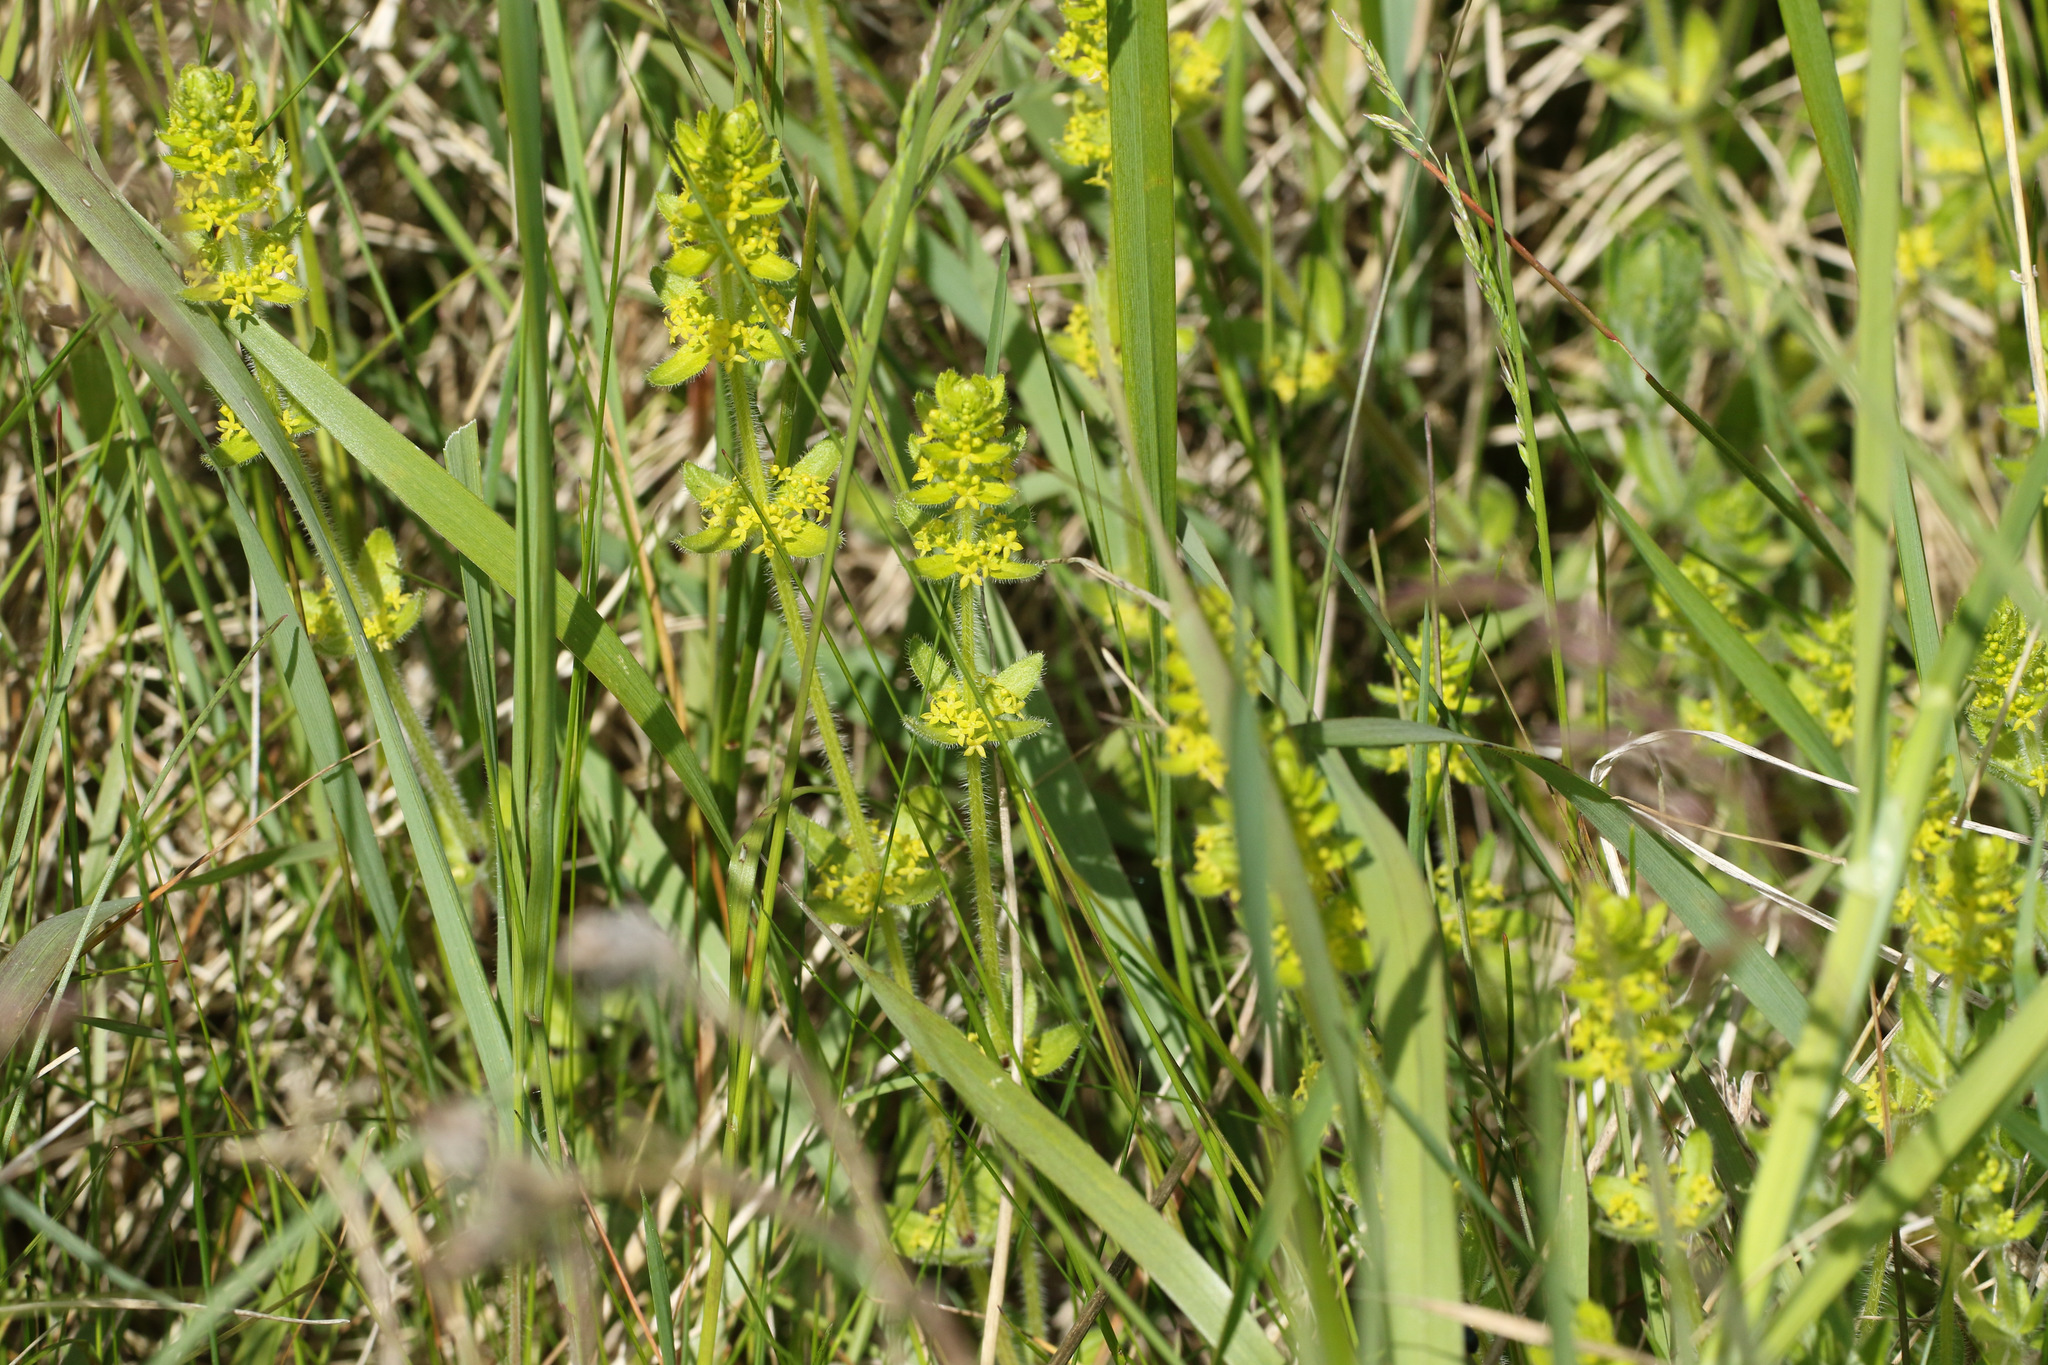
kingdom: Plantae
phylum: Tracheophyta
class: Magnoliopsida
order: Gentianales
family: Rubiaceae
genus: Cruciata
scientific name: Cruciata laevipes
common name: Crosswort
